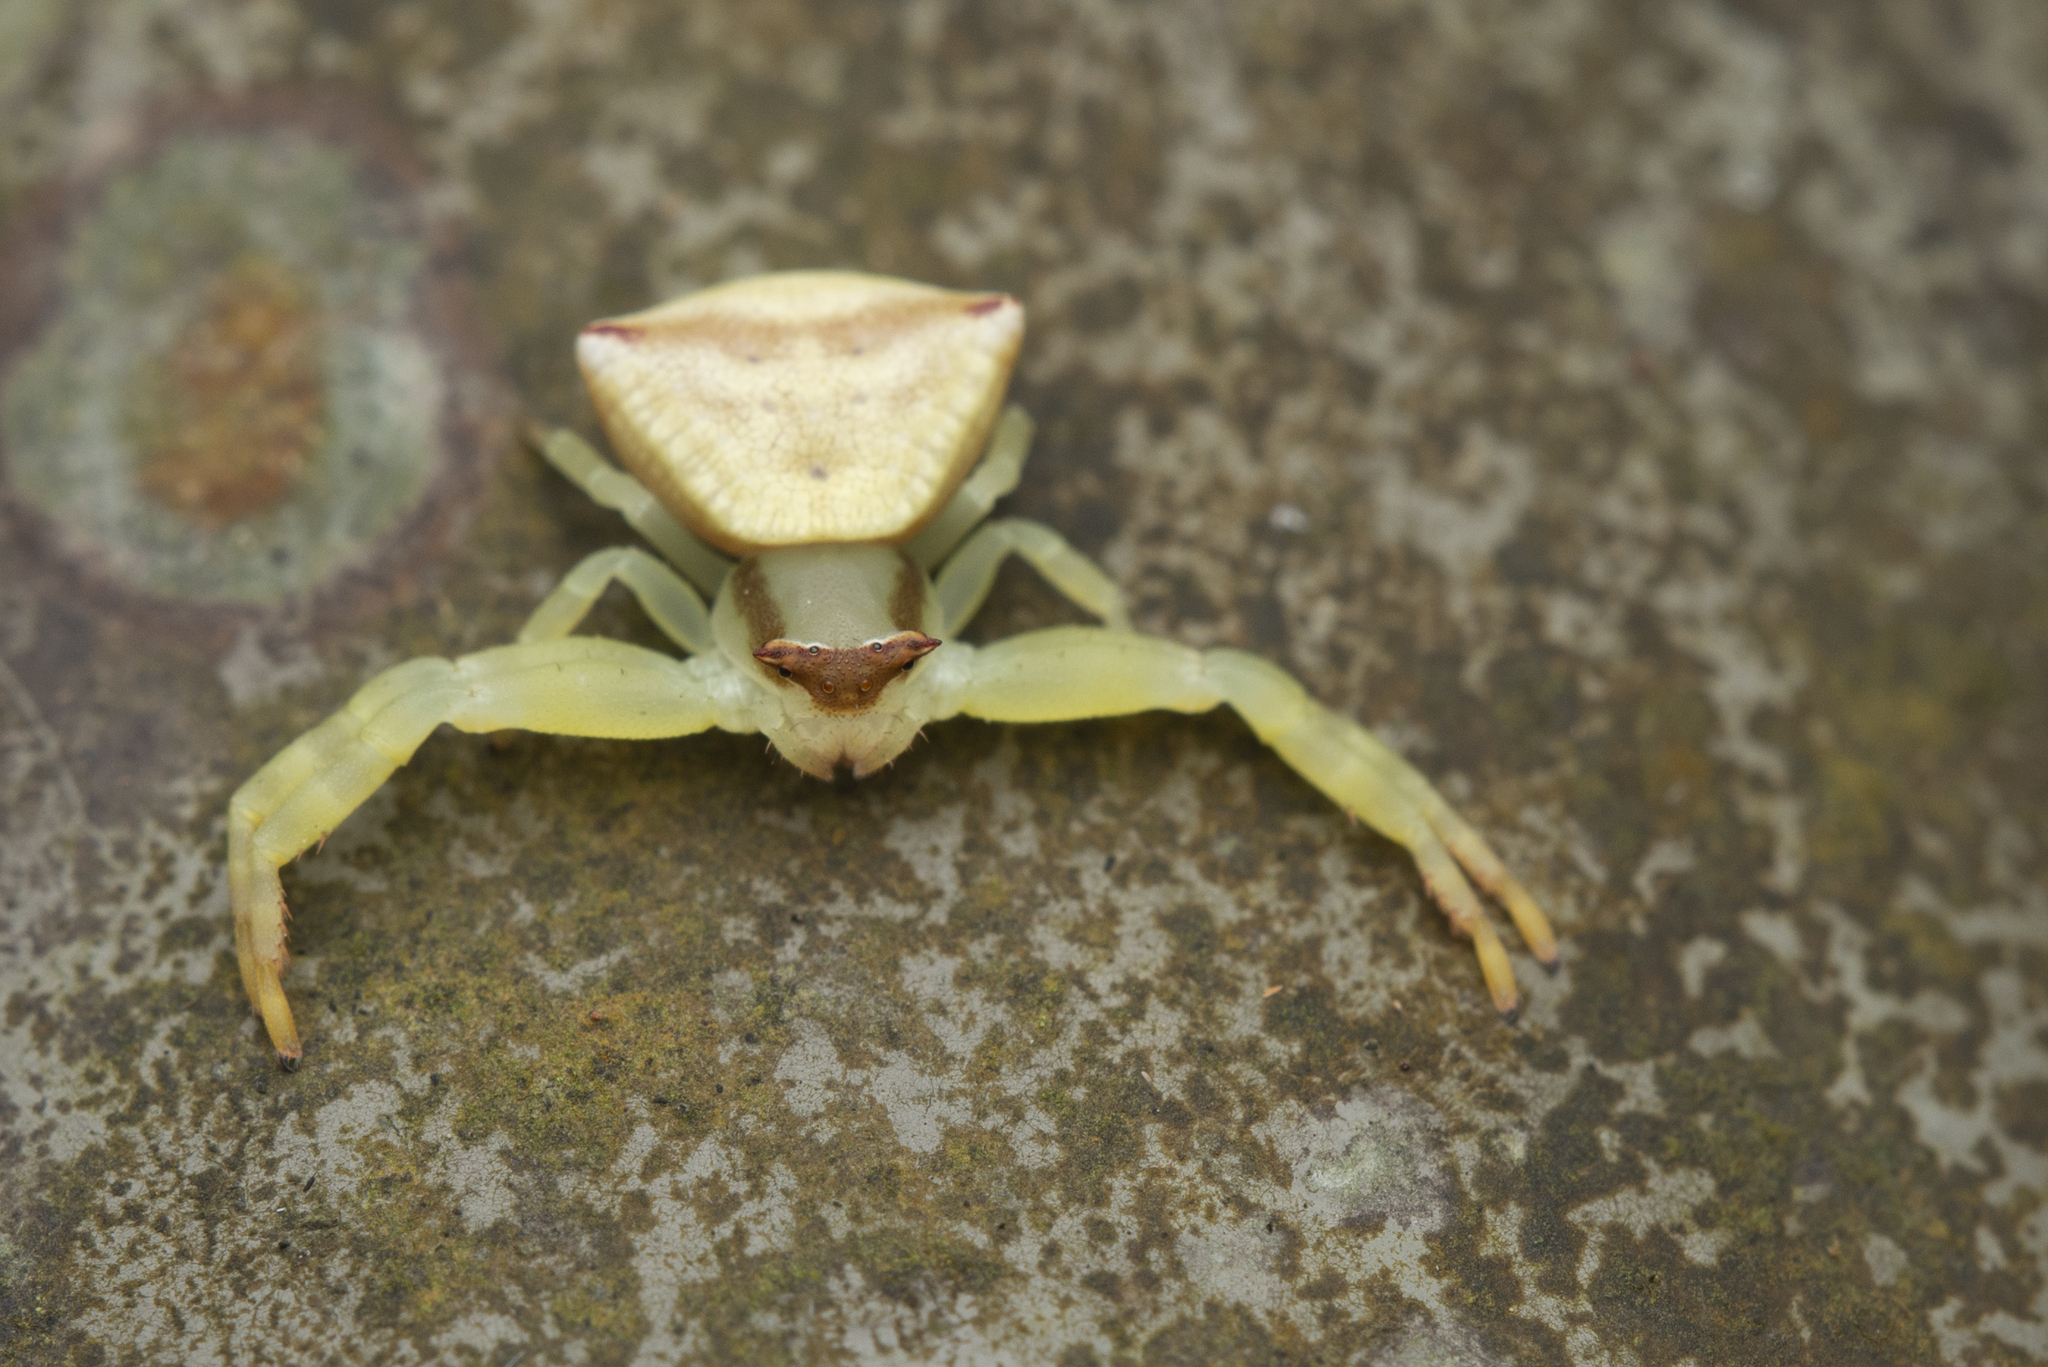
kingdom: Animalia
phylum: Arthropoda
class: Arachnida
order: Araneae
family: Thomisidae
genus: Thomisus
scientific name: Thomisus labefactus
